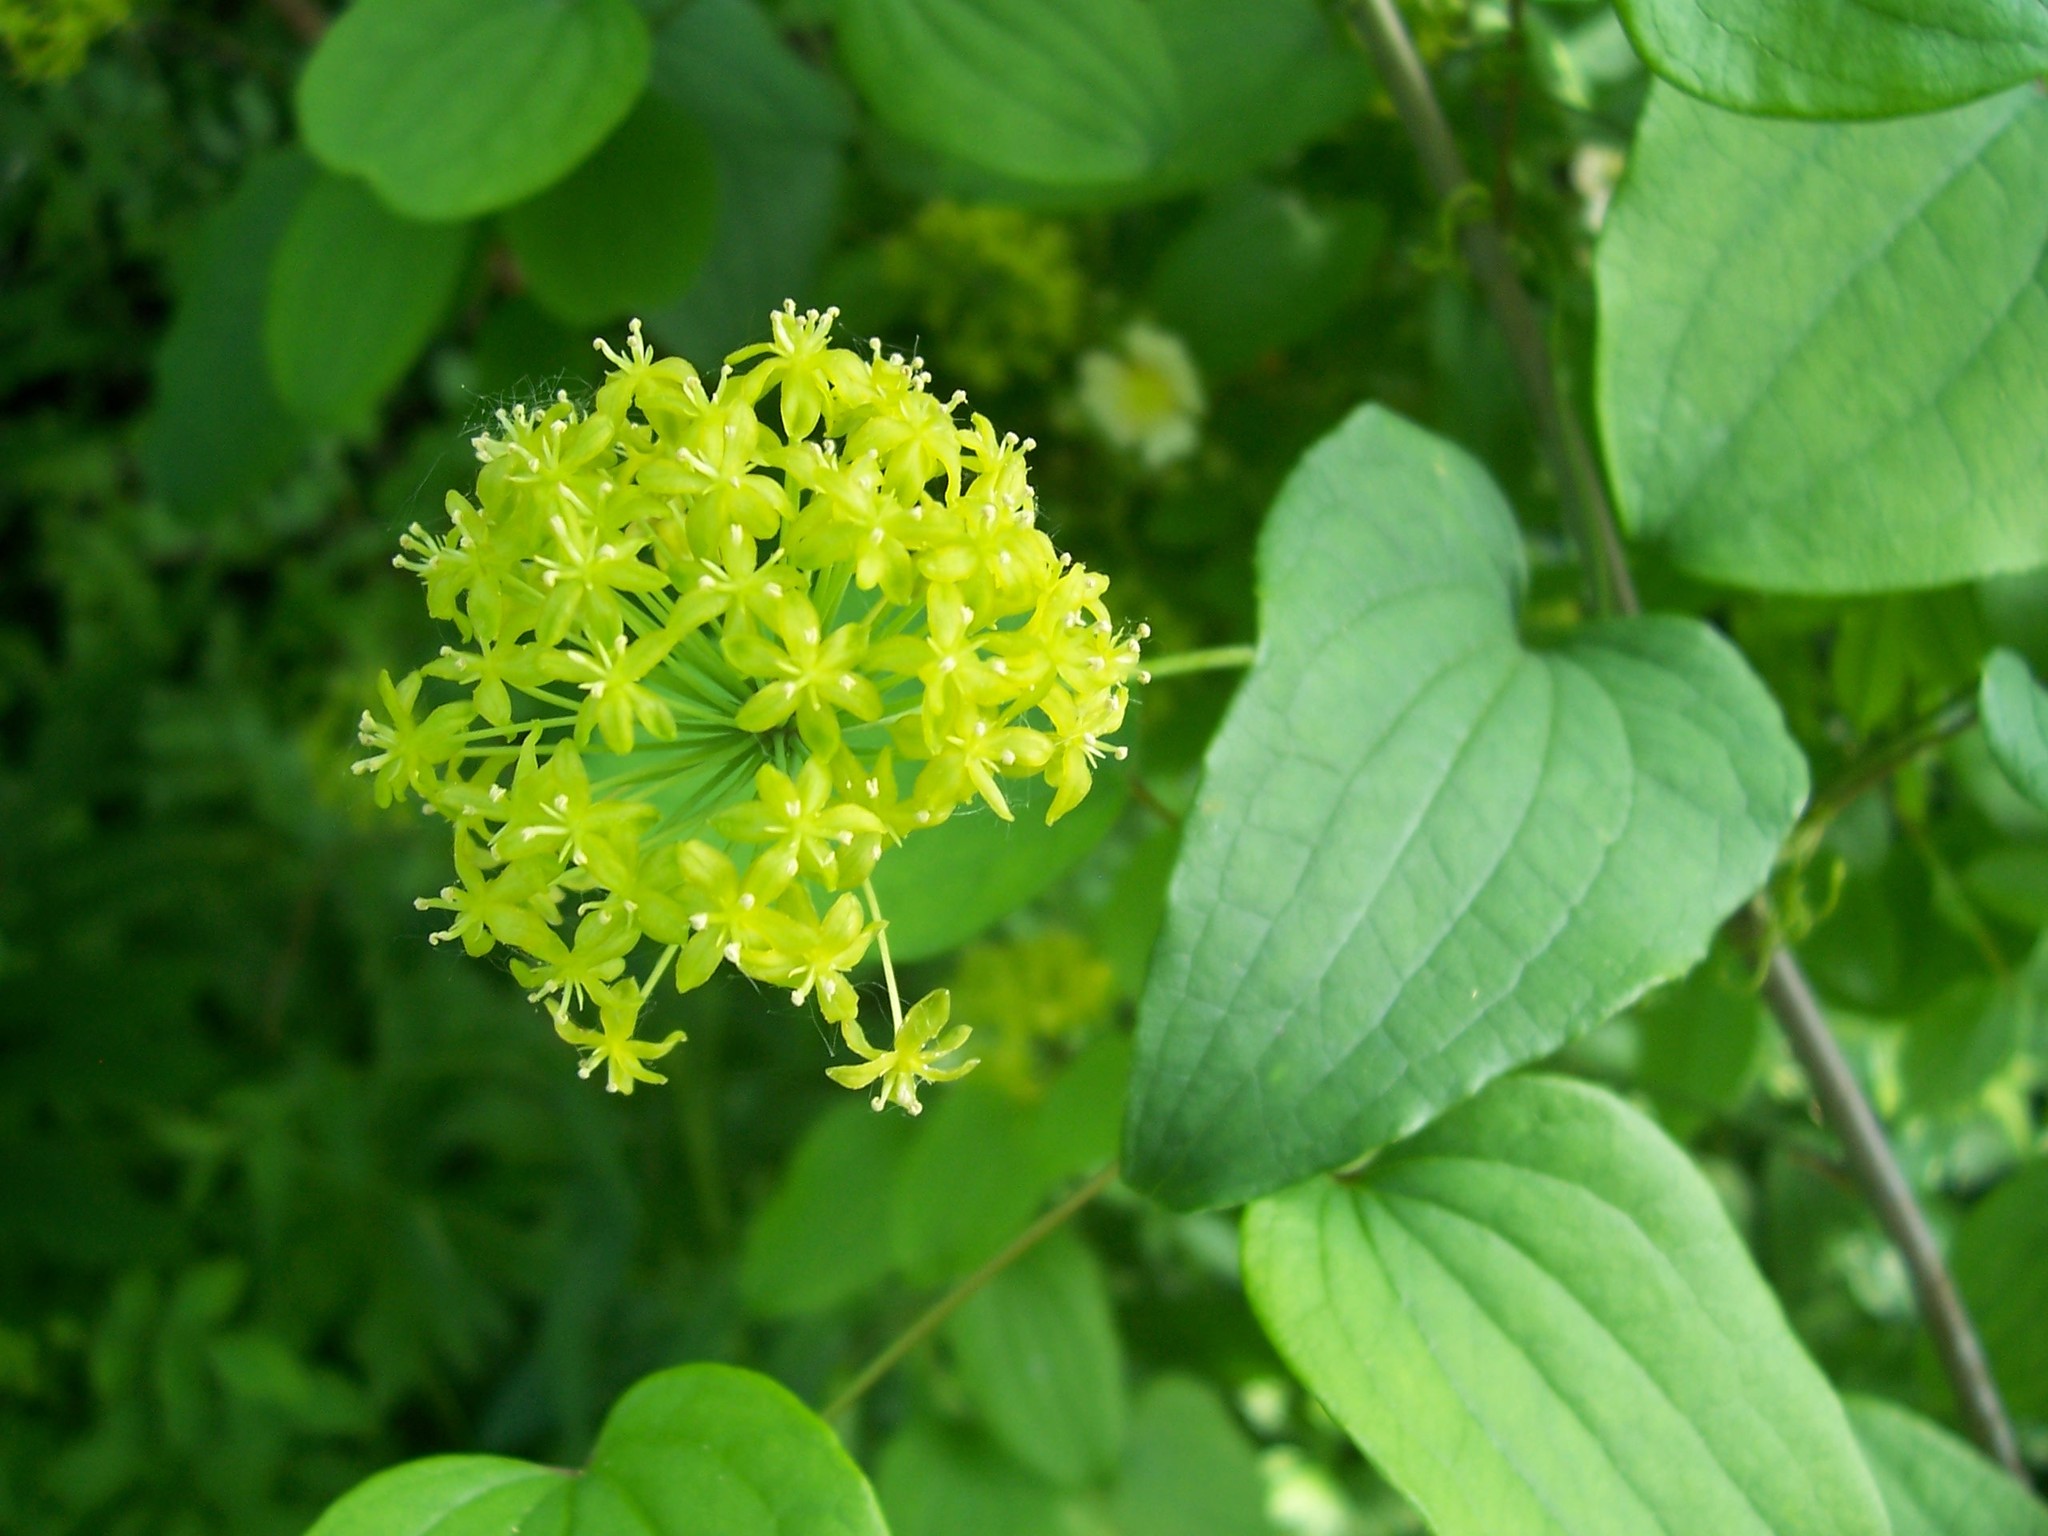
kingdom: Plantae
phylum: Tracheophyta
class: Liliopsida
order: Liliales
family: Smilacaceae
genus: Smilax
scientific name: Smilax herbacea
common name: Jacob's-ladder
